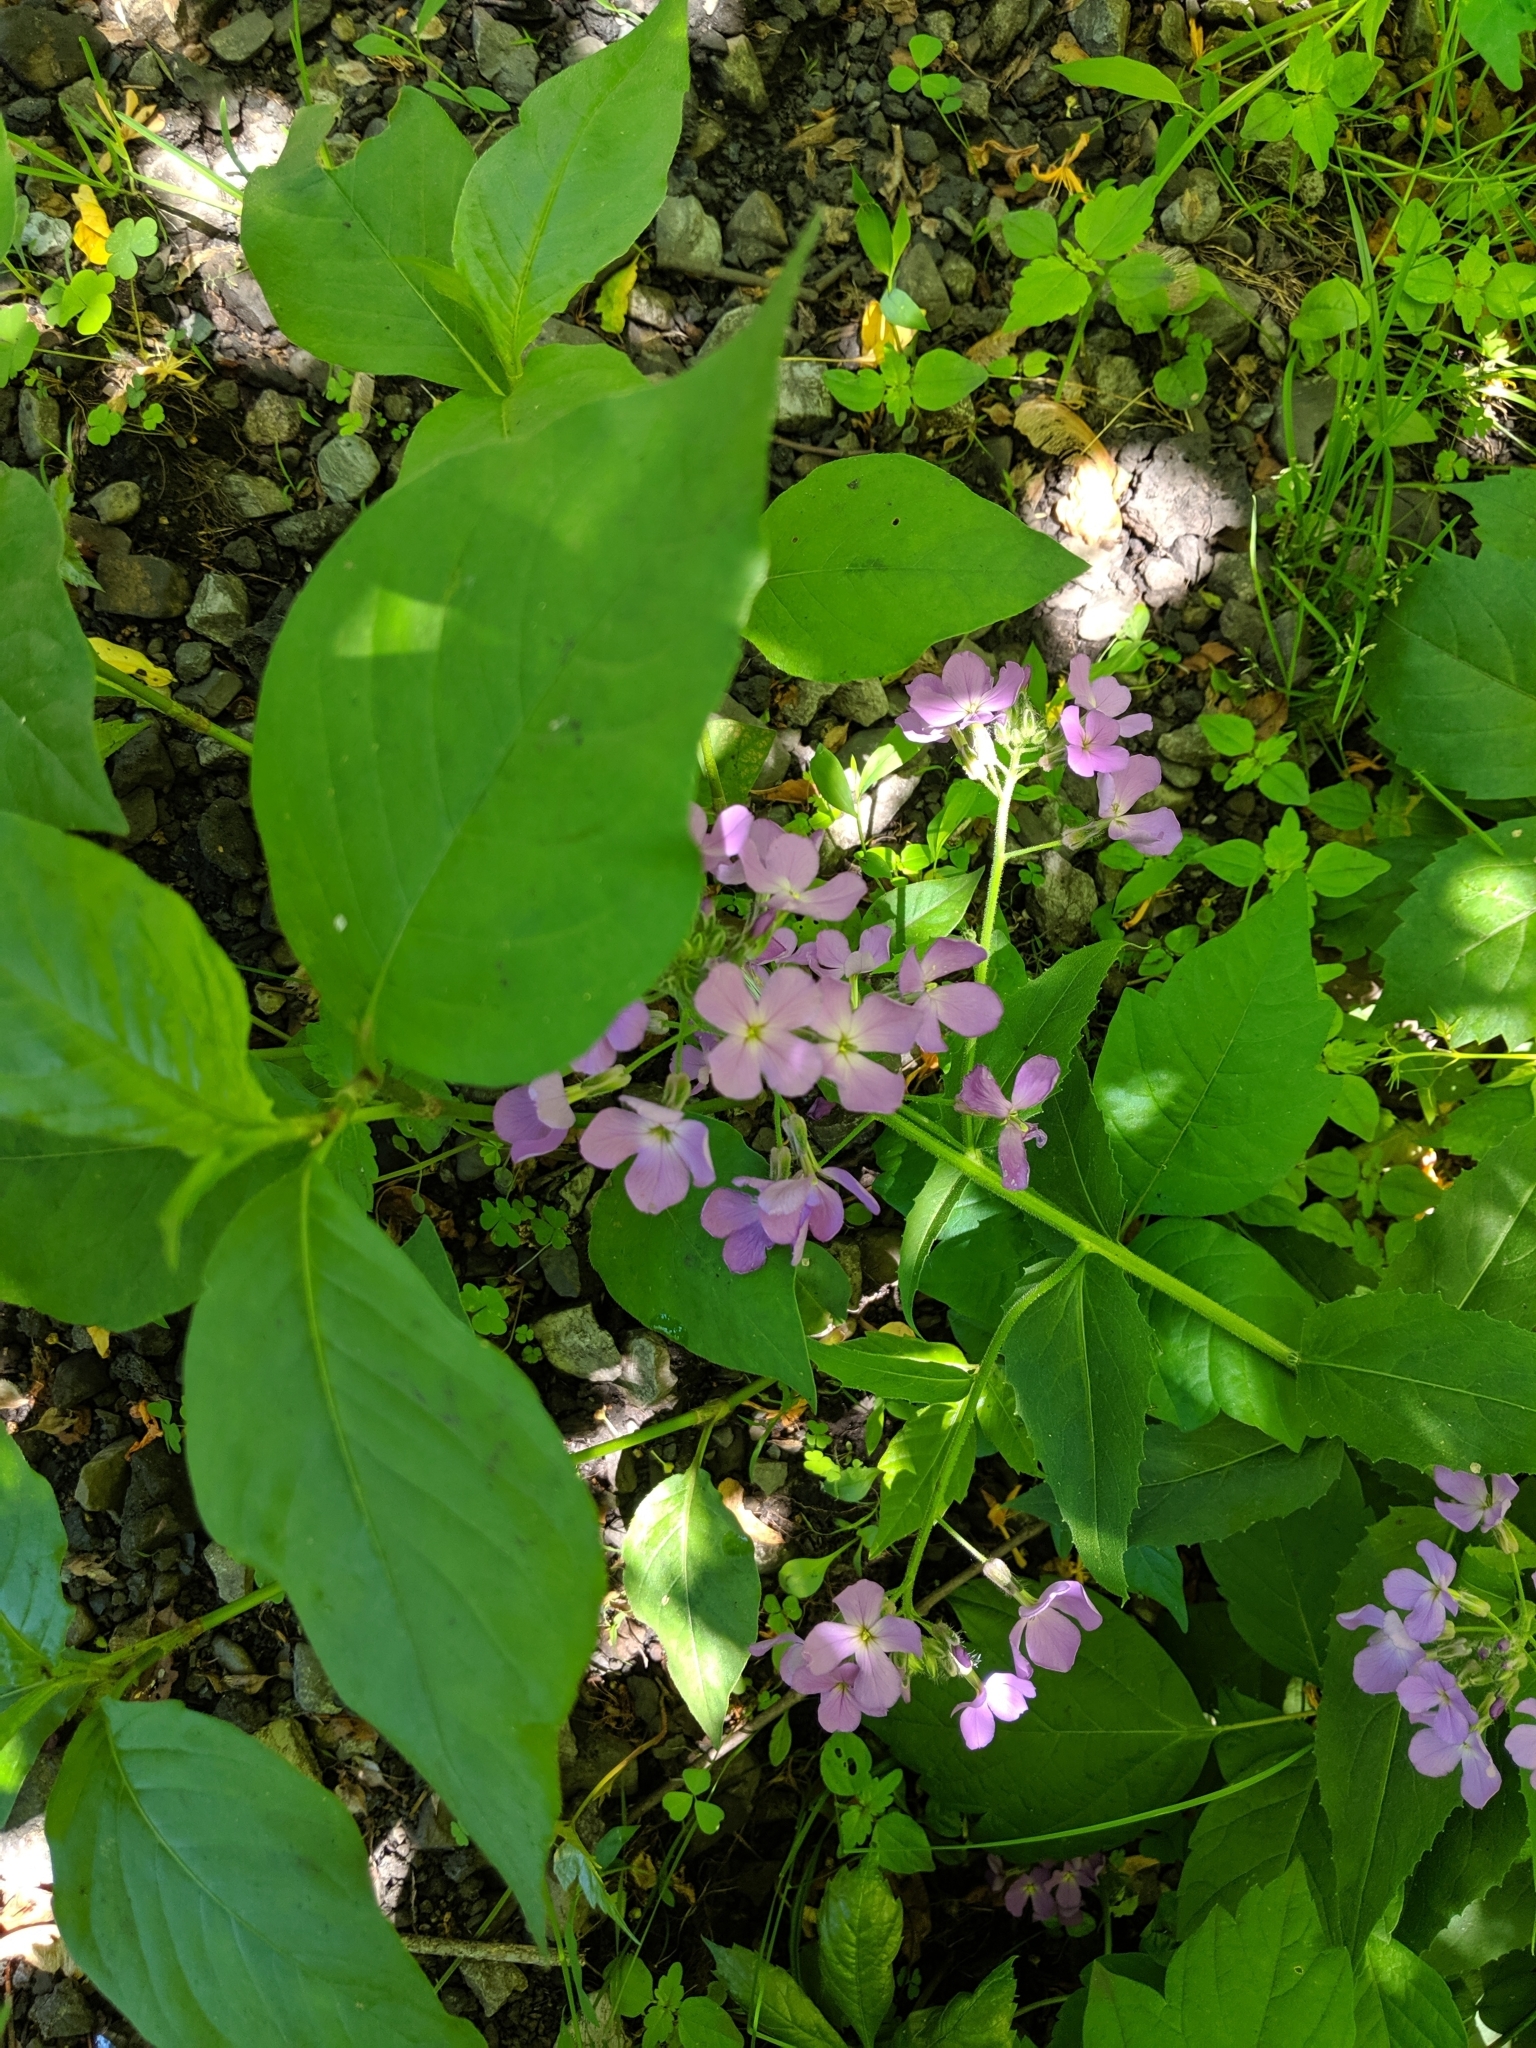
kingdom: Plantae
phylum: Tracheophyta
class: Magnoliopsida
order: Brassicales
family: Brassicaceae
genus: Hesperis
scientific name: Hesperis matronalis
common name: Dame's-violet
